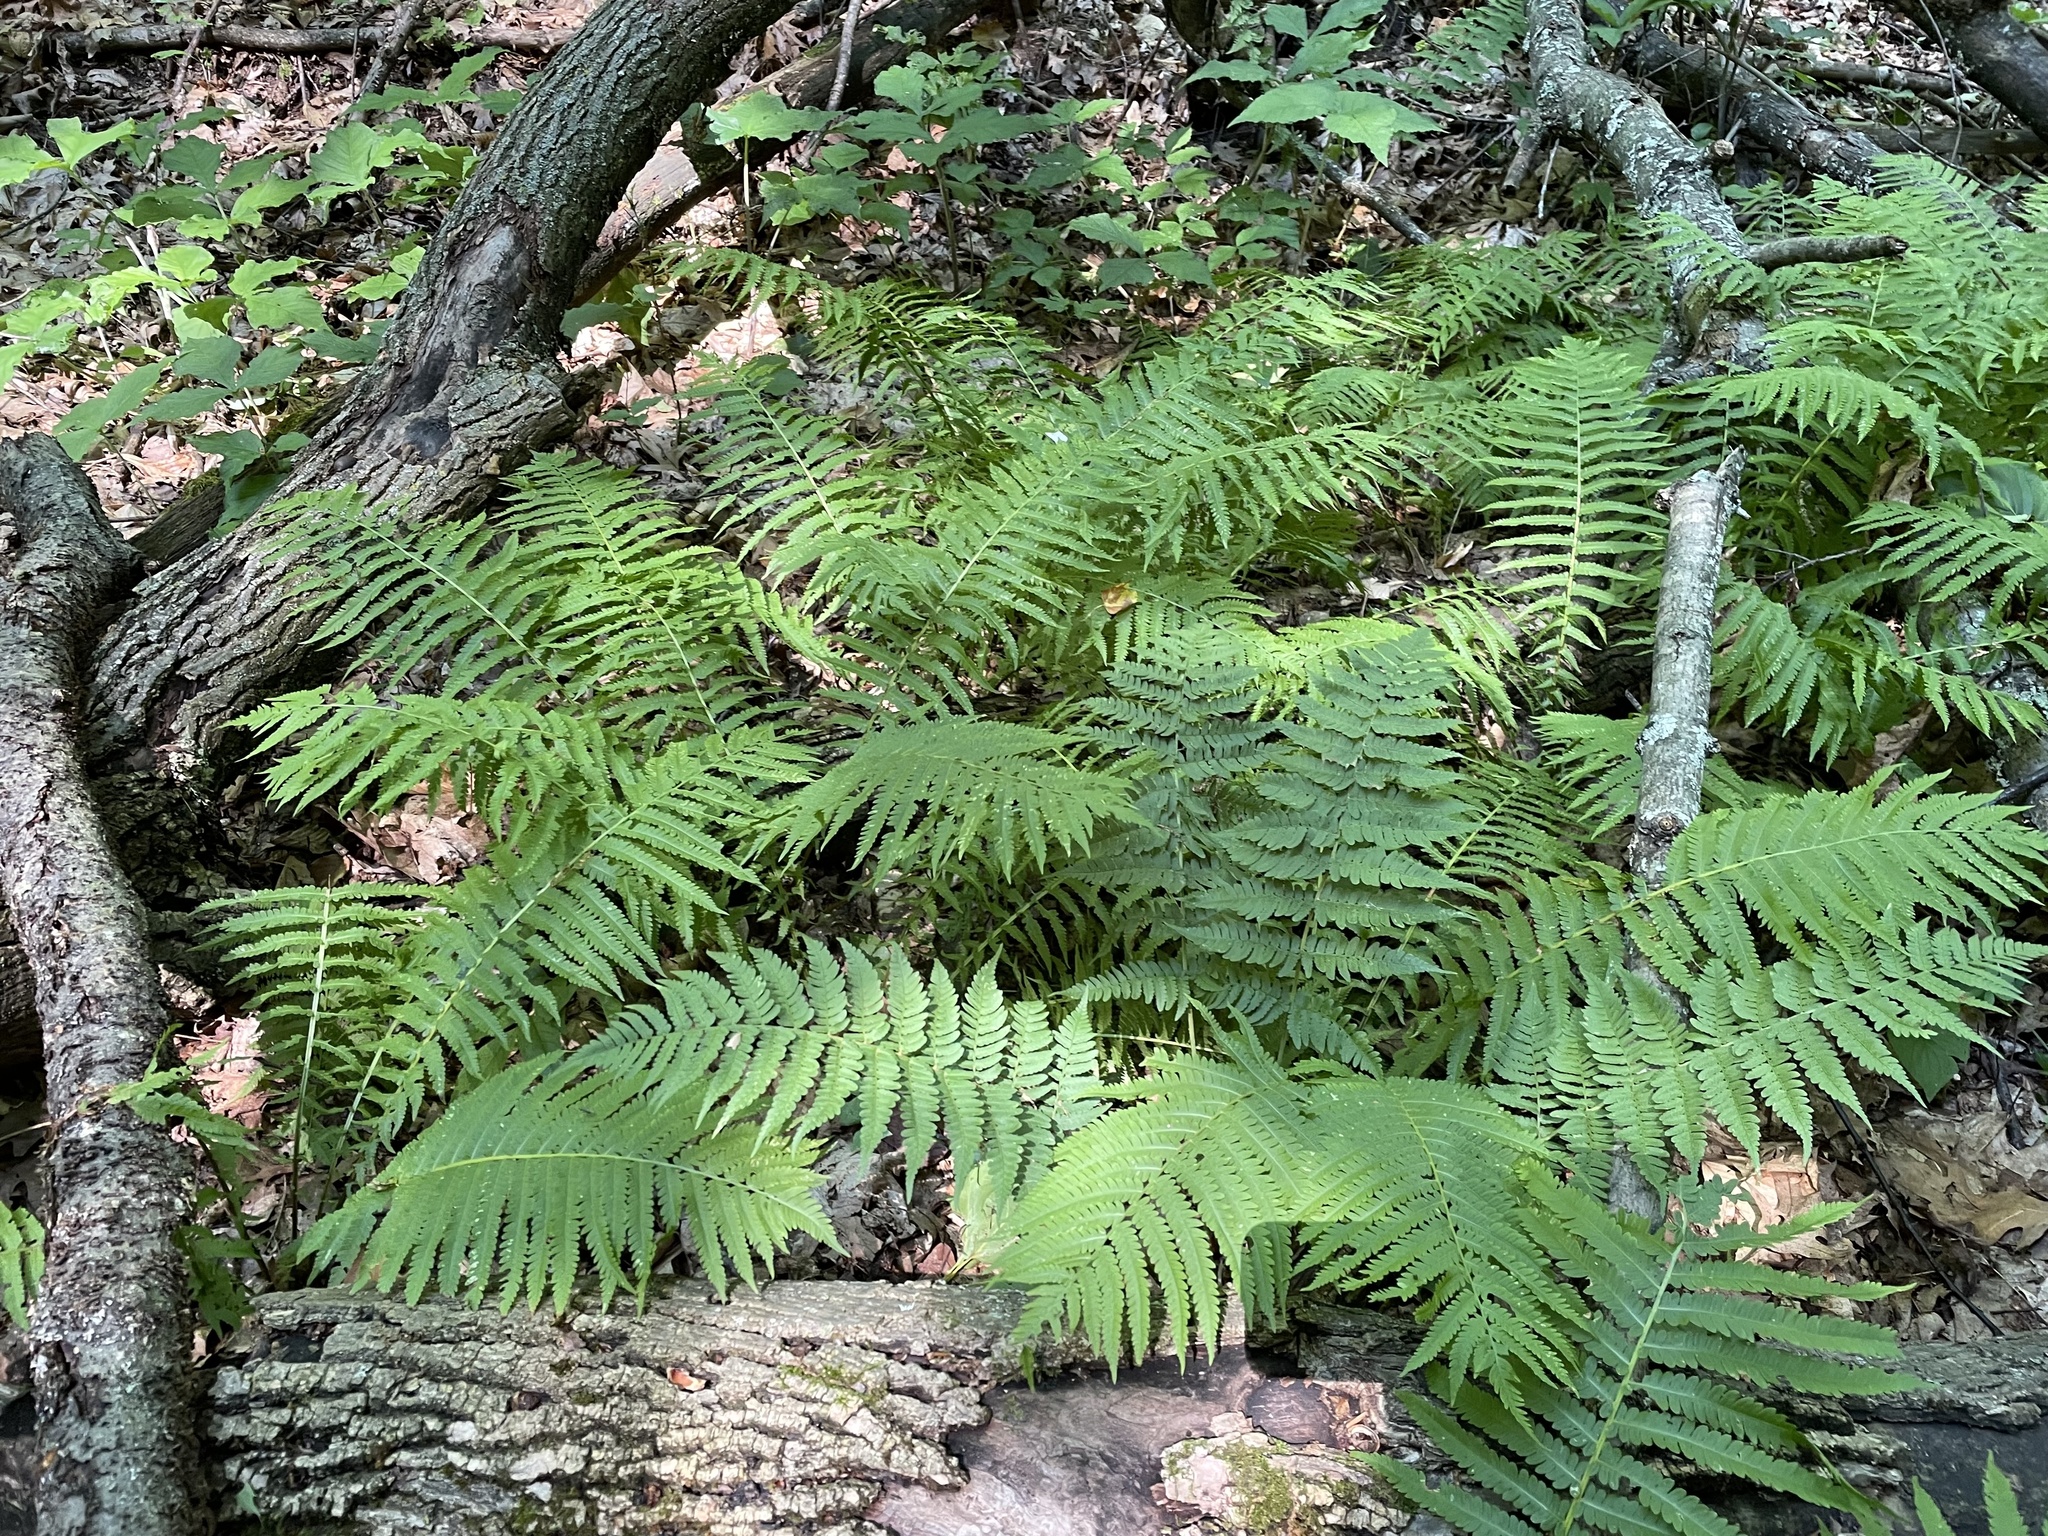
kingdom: Plantae
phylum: Tracheophyta
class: Polypodiopsida
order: Polypodiales
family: Onocleaceae
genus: Matteuccia
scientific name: Matteuccia struthiopteris
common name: Ostrich fern
